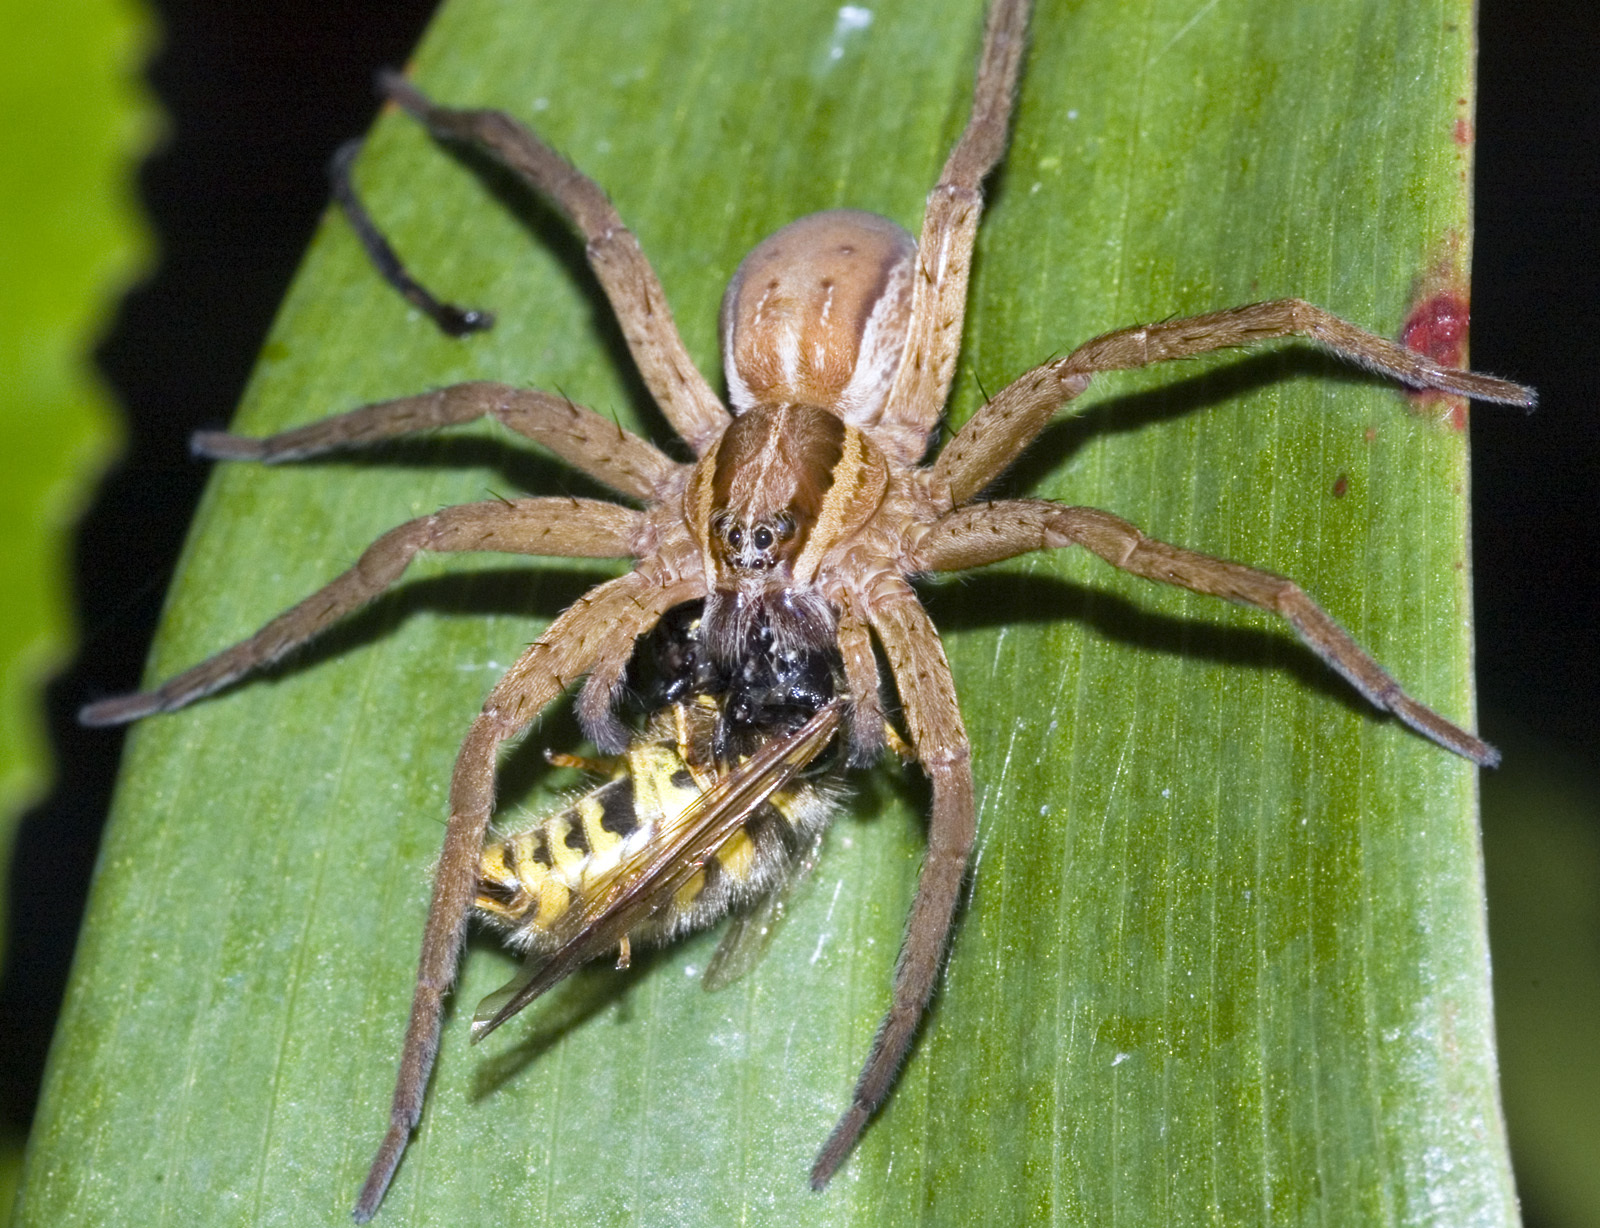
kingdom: Animalia
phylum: Arthropoda
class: Arachnida
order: Araneae
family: Pisauridae
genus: Dolomedes
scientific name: Dolomedes minor
